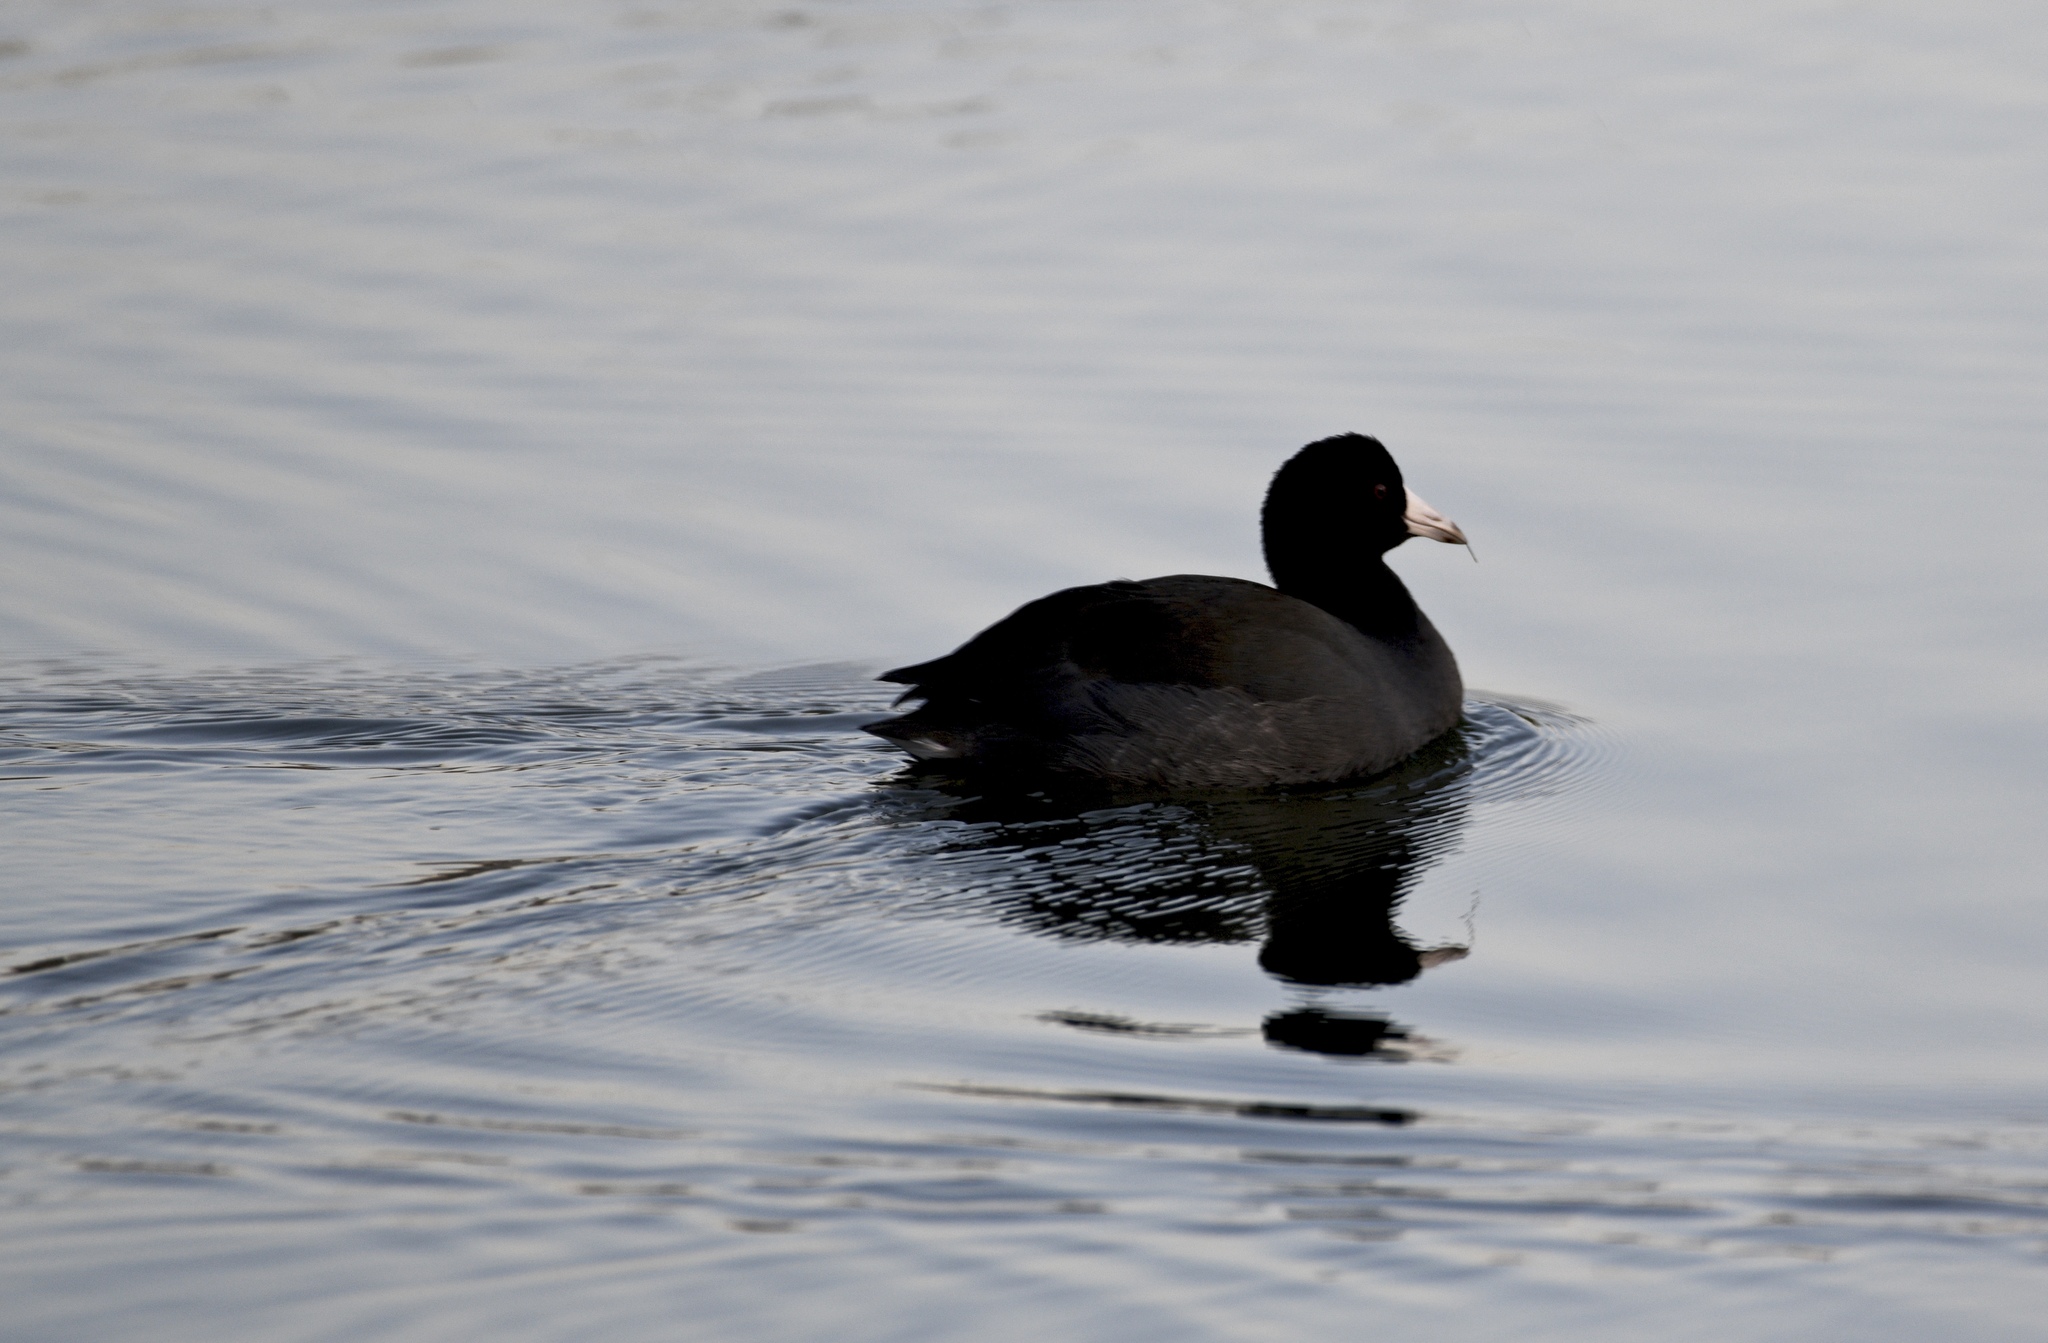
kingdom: Animalia
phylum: Chordata
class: Aves
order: Gruiformes
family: Rallidae
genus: Fulica
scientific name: Fulica americana
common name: American coot
